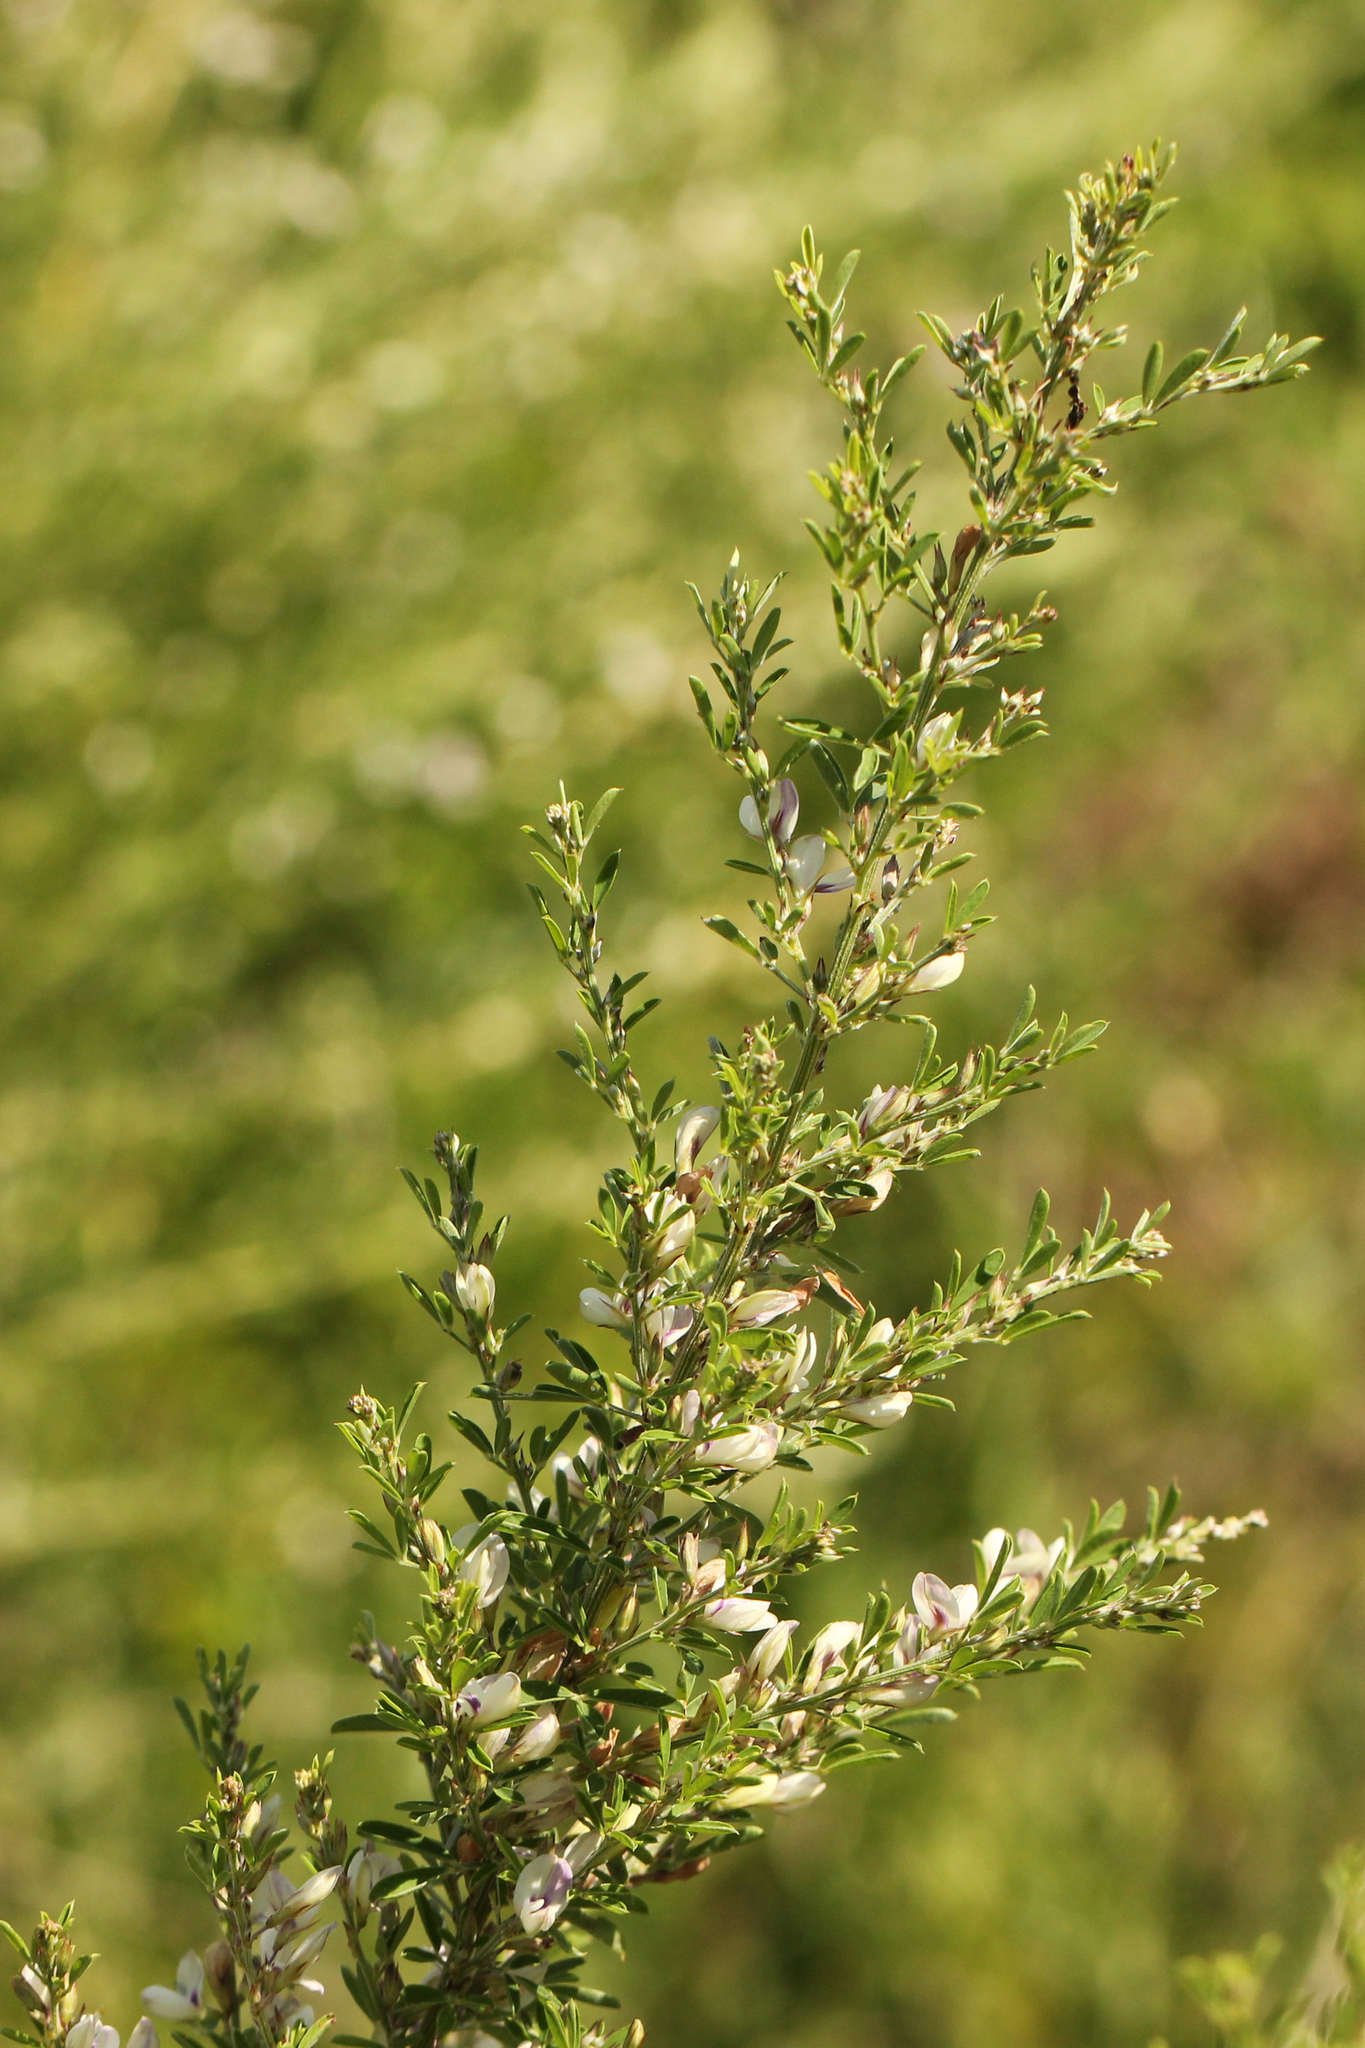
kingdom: Plantae
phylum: Tracheophyta
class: Magnoliopsida
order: Fabales
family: Fabaceae
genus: Lespedeza
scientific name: Lespedeza cuneata
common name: Chinese bush-clover
